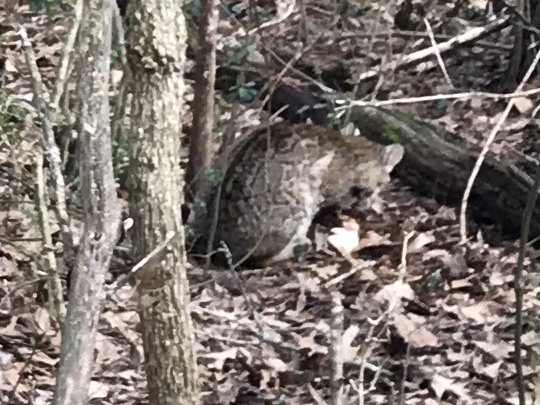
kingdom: Animalia
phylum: Chordata
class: Mammalia
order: Carnivora
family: Felidae
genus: Lynx
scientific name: Lynx rufus
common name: Bobcat
